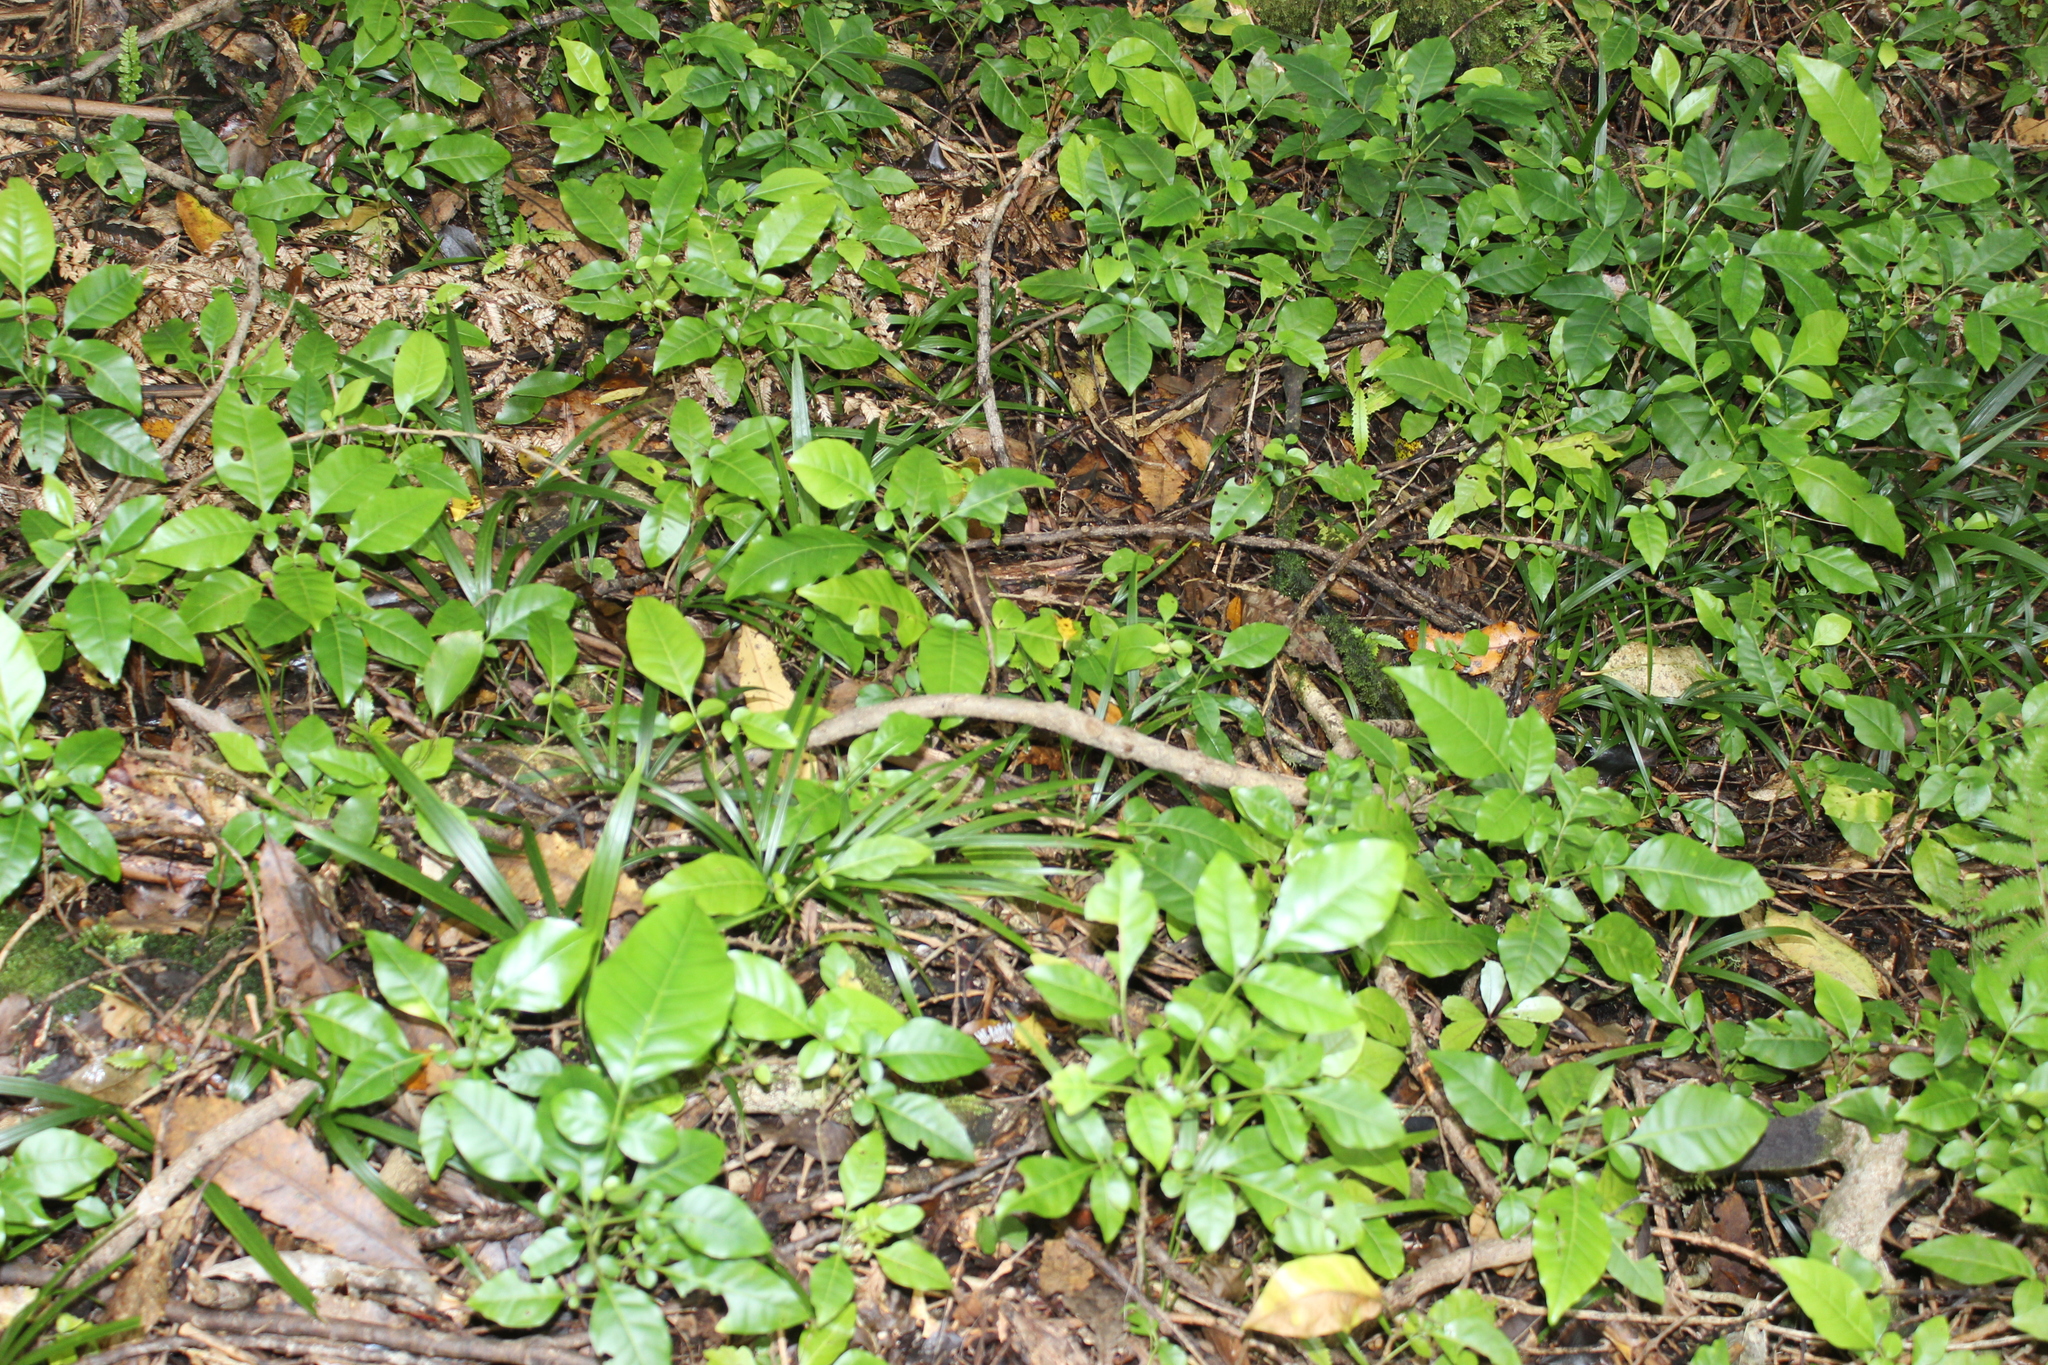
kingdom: Plantae
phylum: Tracheophyta
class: Magnoliopsida
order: Sapindales
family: Meliaceae
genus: Didymocheton
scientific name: Didymocheton spectabilis
